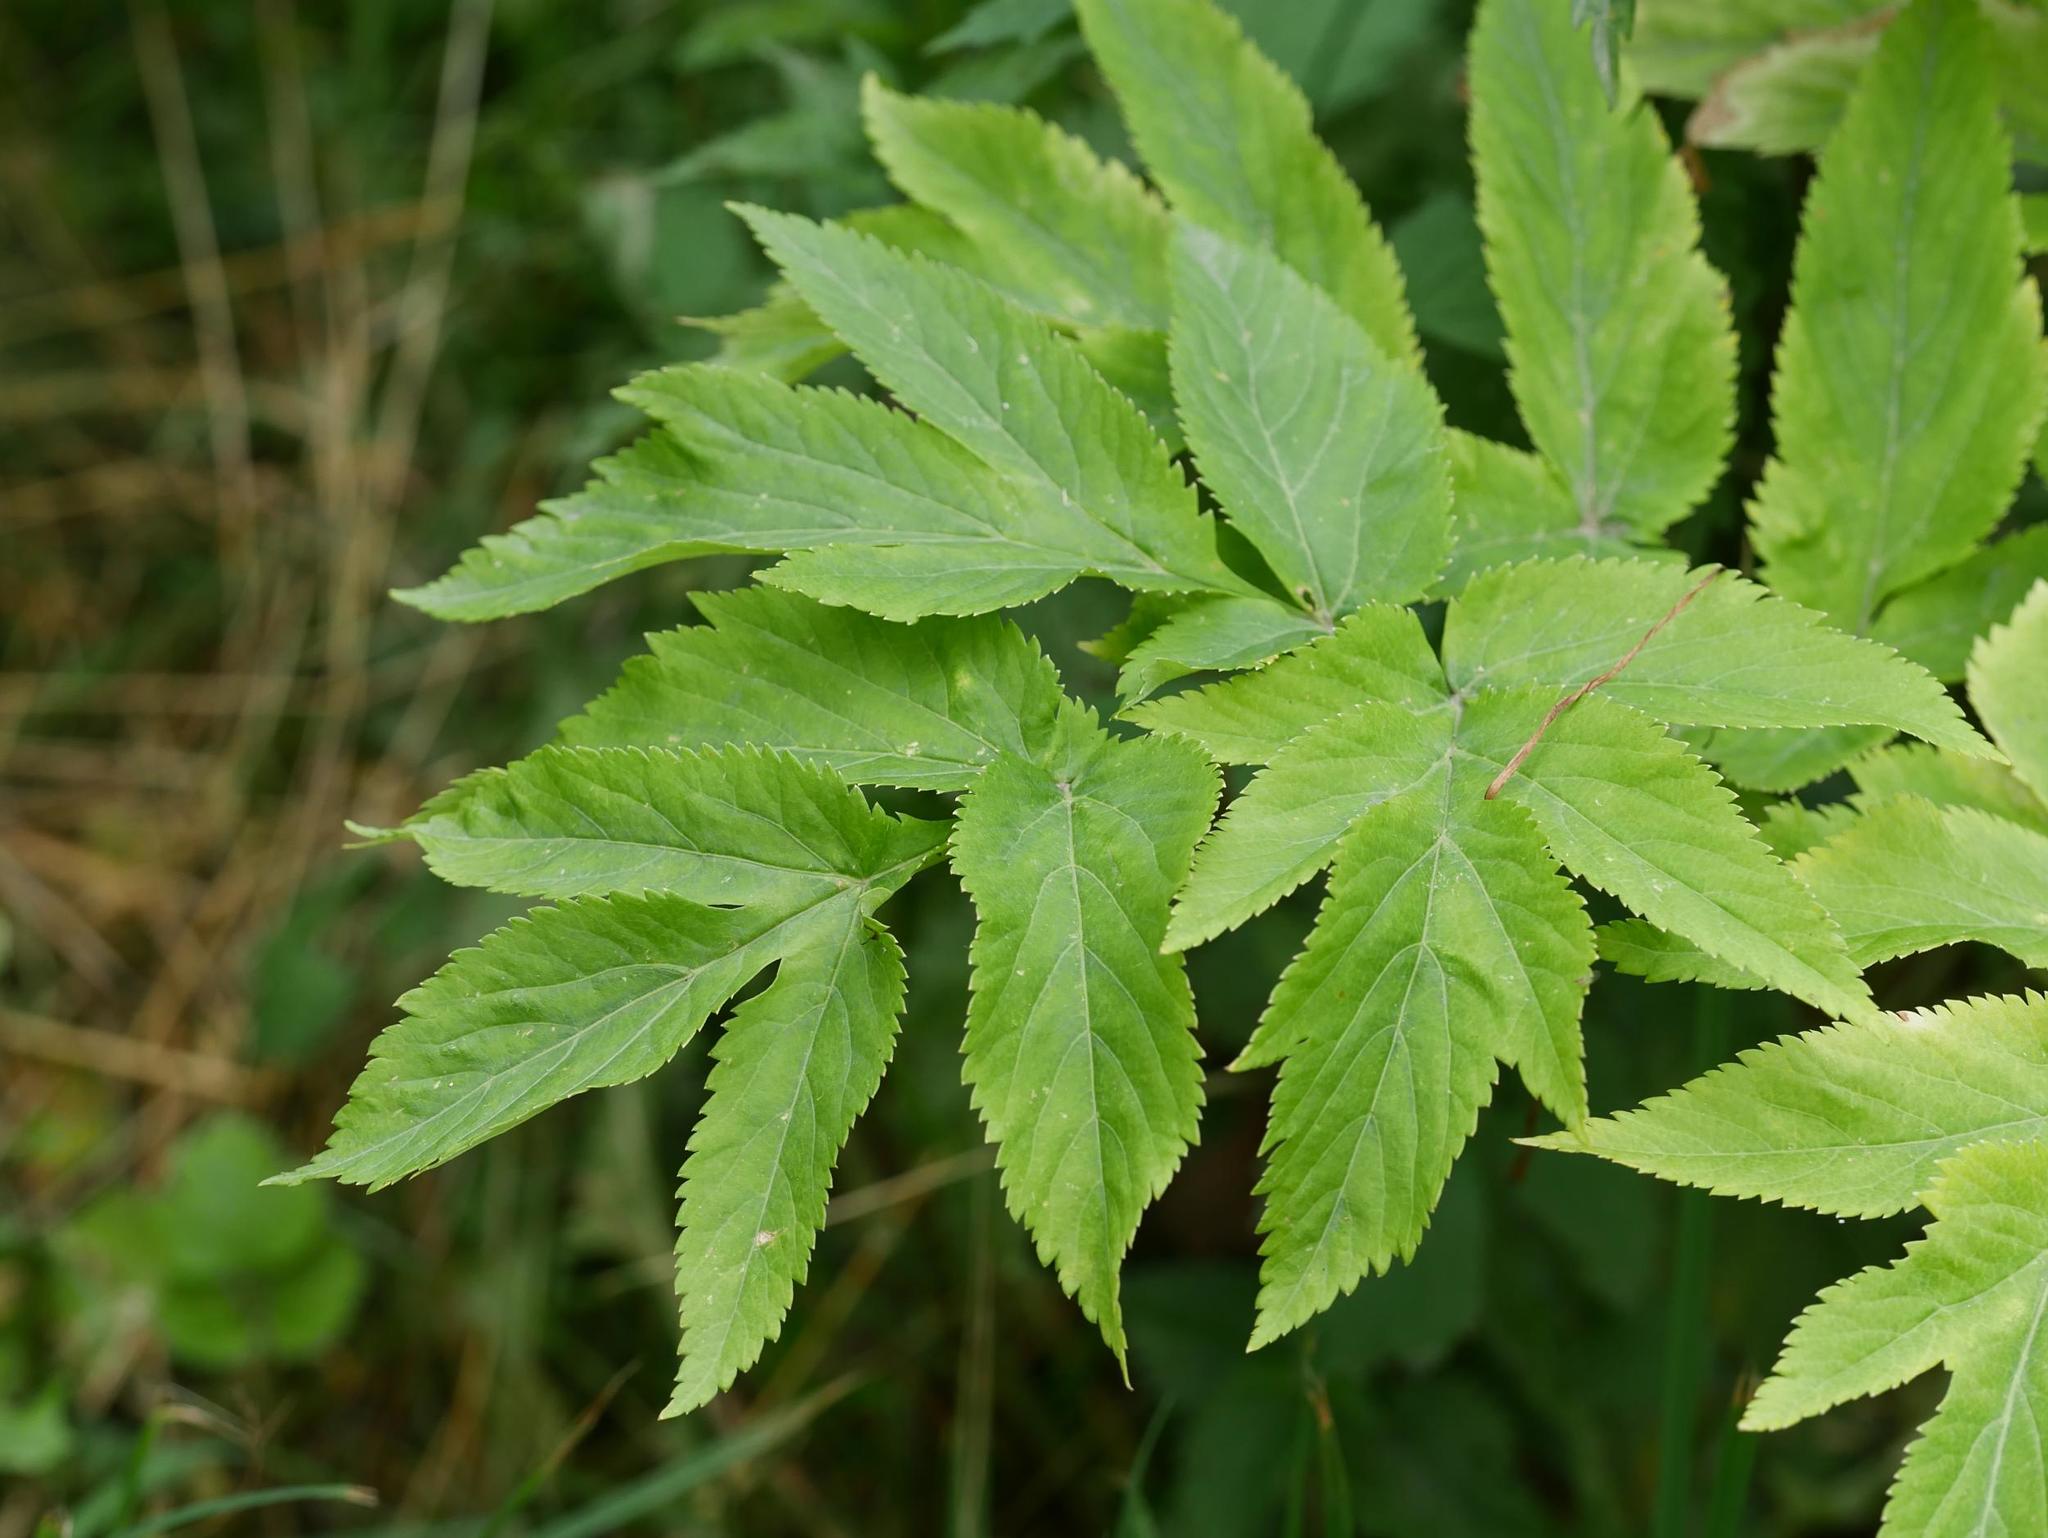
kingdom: Plantae
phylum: Tracheophyta
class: Magnoliopsida
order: Apiales
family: Apiaceae
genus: Angelica
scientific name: Angelica archangelica
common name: Garden angelica
